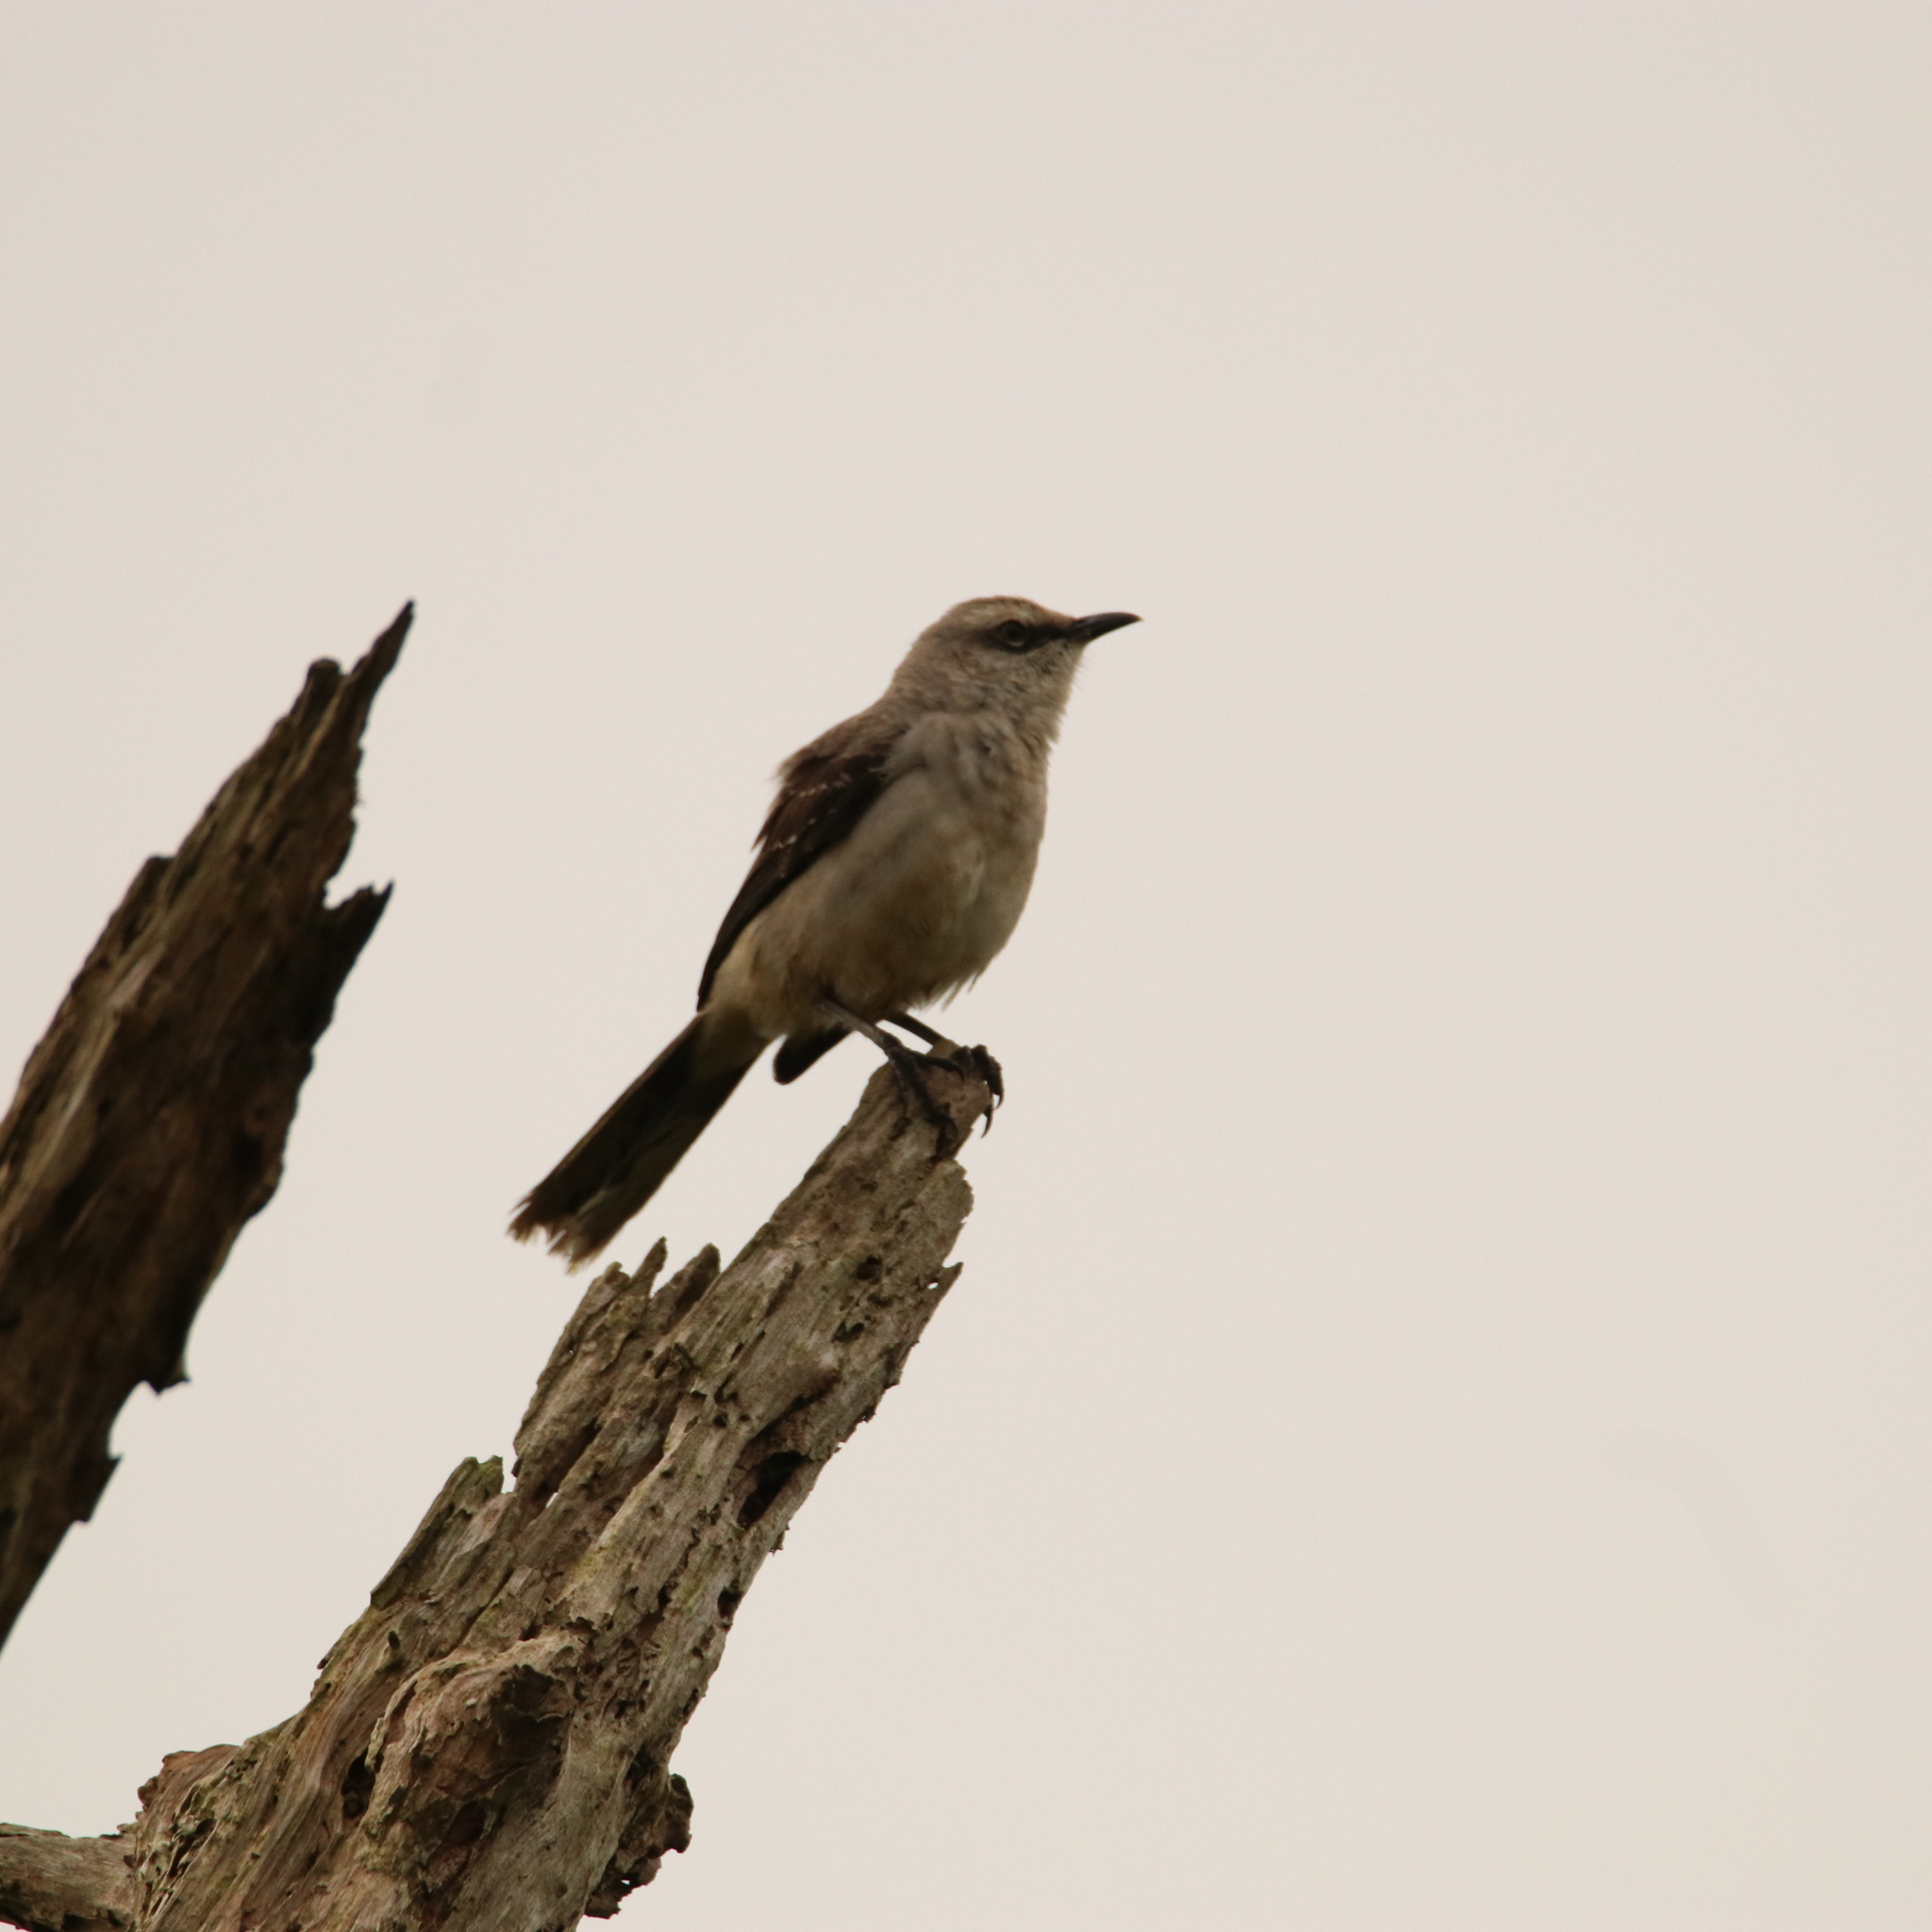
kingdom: Animalia
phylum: Chordata
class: Aves
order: Passeriformes
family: Mimidae
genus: Mimus
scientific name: Mimus gilvus
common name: Tropical mockingbird
